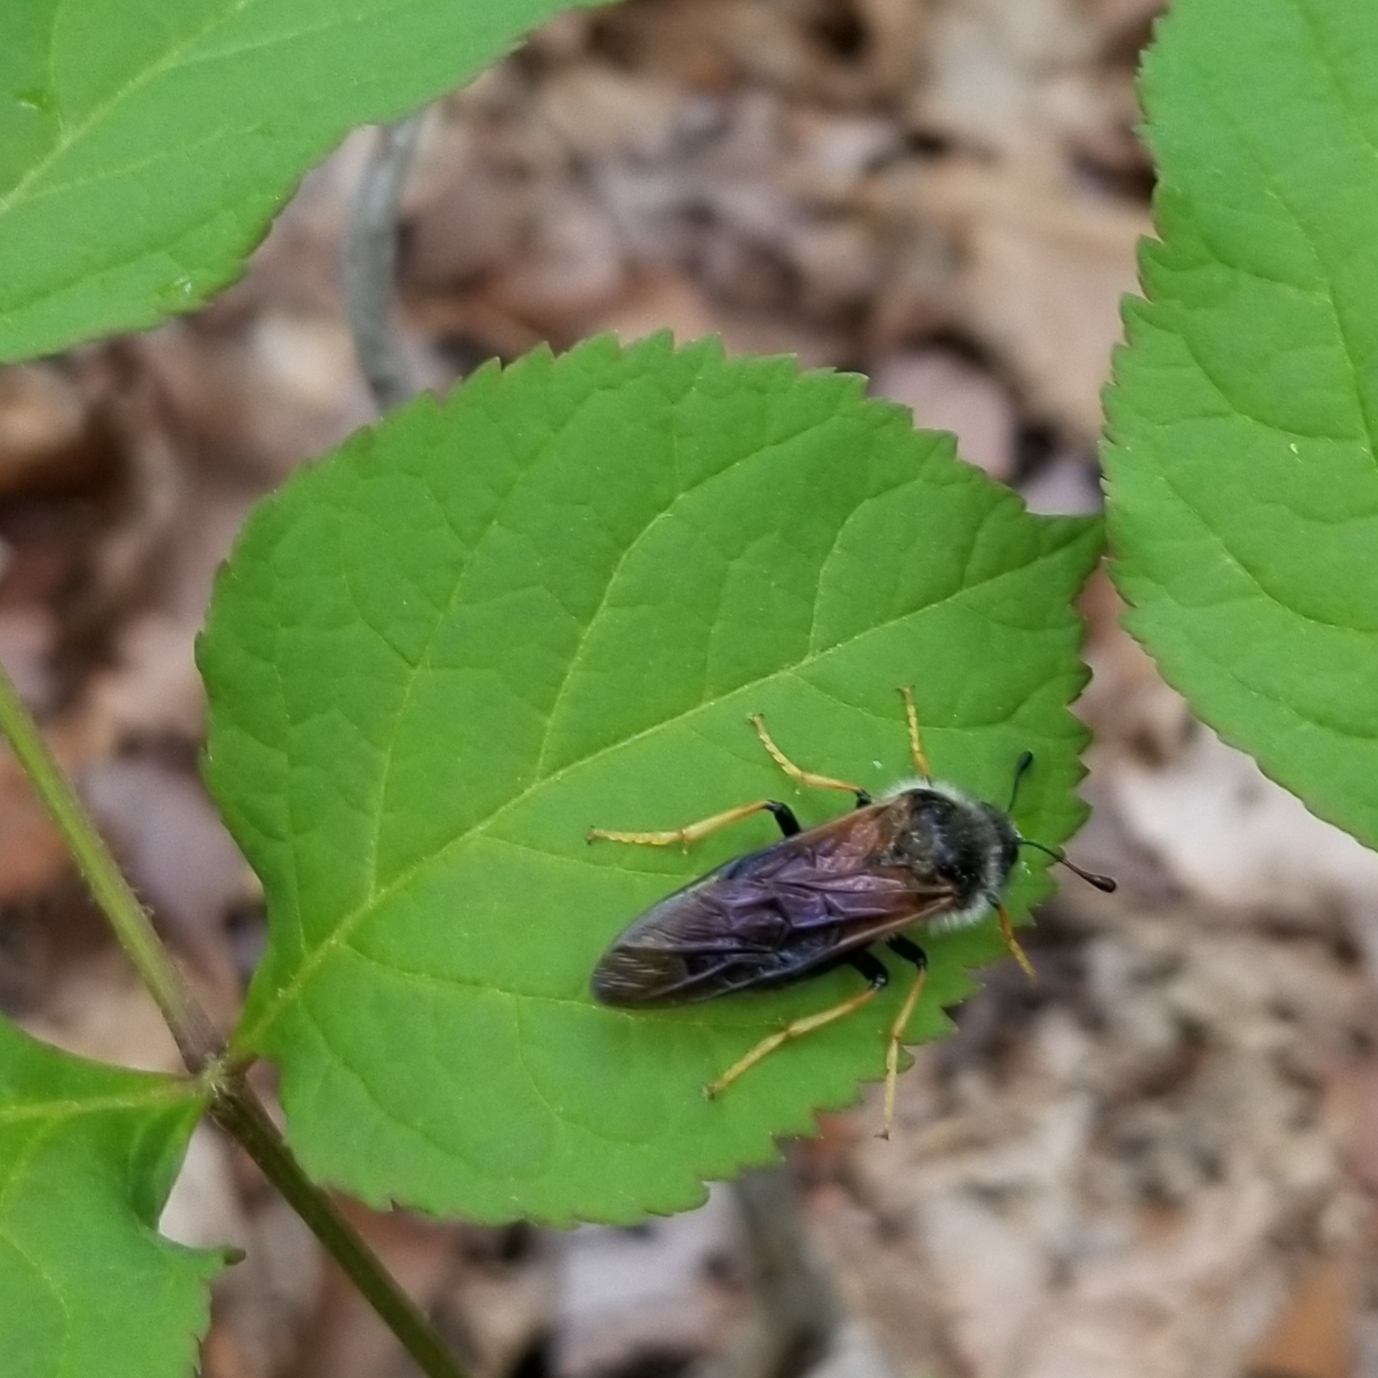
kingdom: Animalia
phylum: Arthropoda
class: Insecta
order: Hymenoptera
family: Cimbicidae
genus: Trichiosoma
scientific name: Trichiosoma triangulum
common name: Giant birch sawfly
